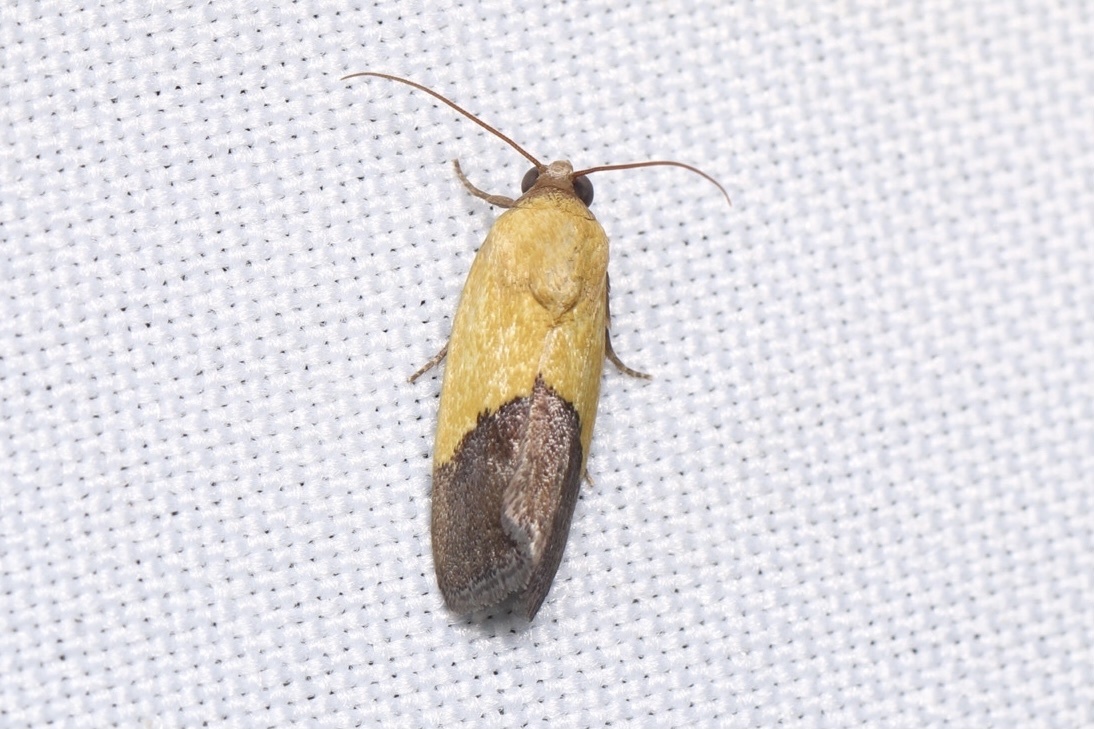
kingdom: Animalia
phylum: Arthropoda
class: Insecta
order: Lepidoptera
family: Noctuidae
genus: Acontia
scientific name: Acontia bicolorata
